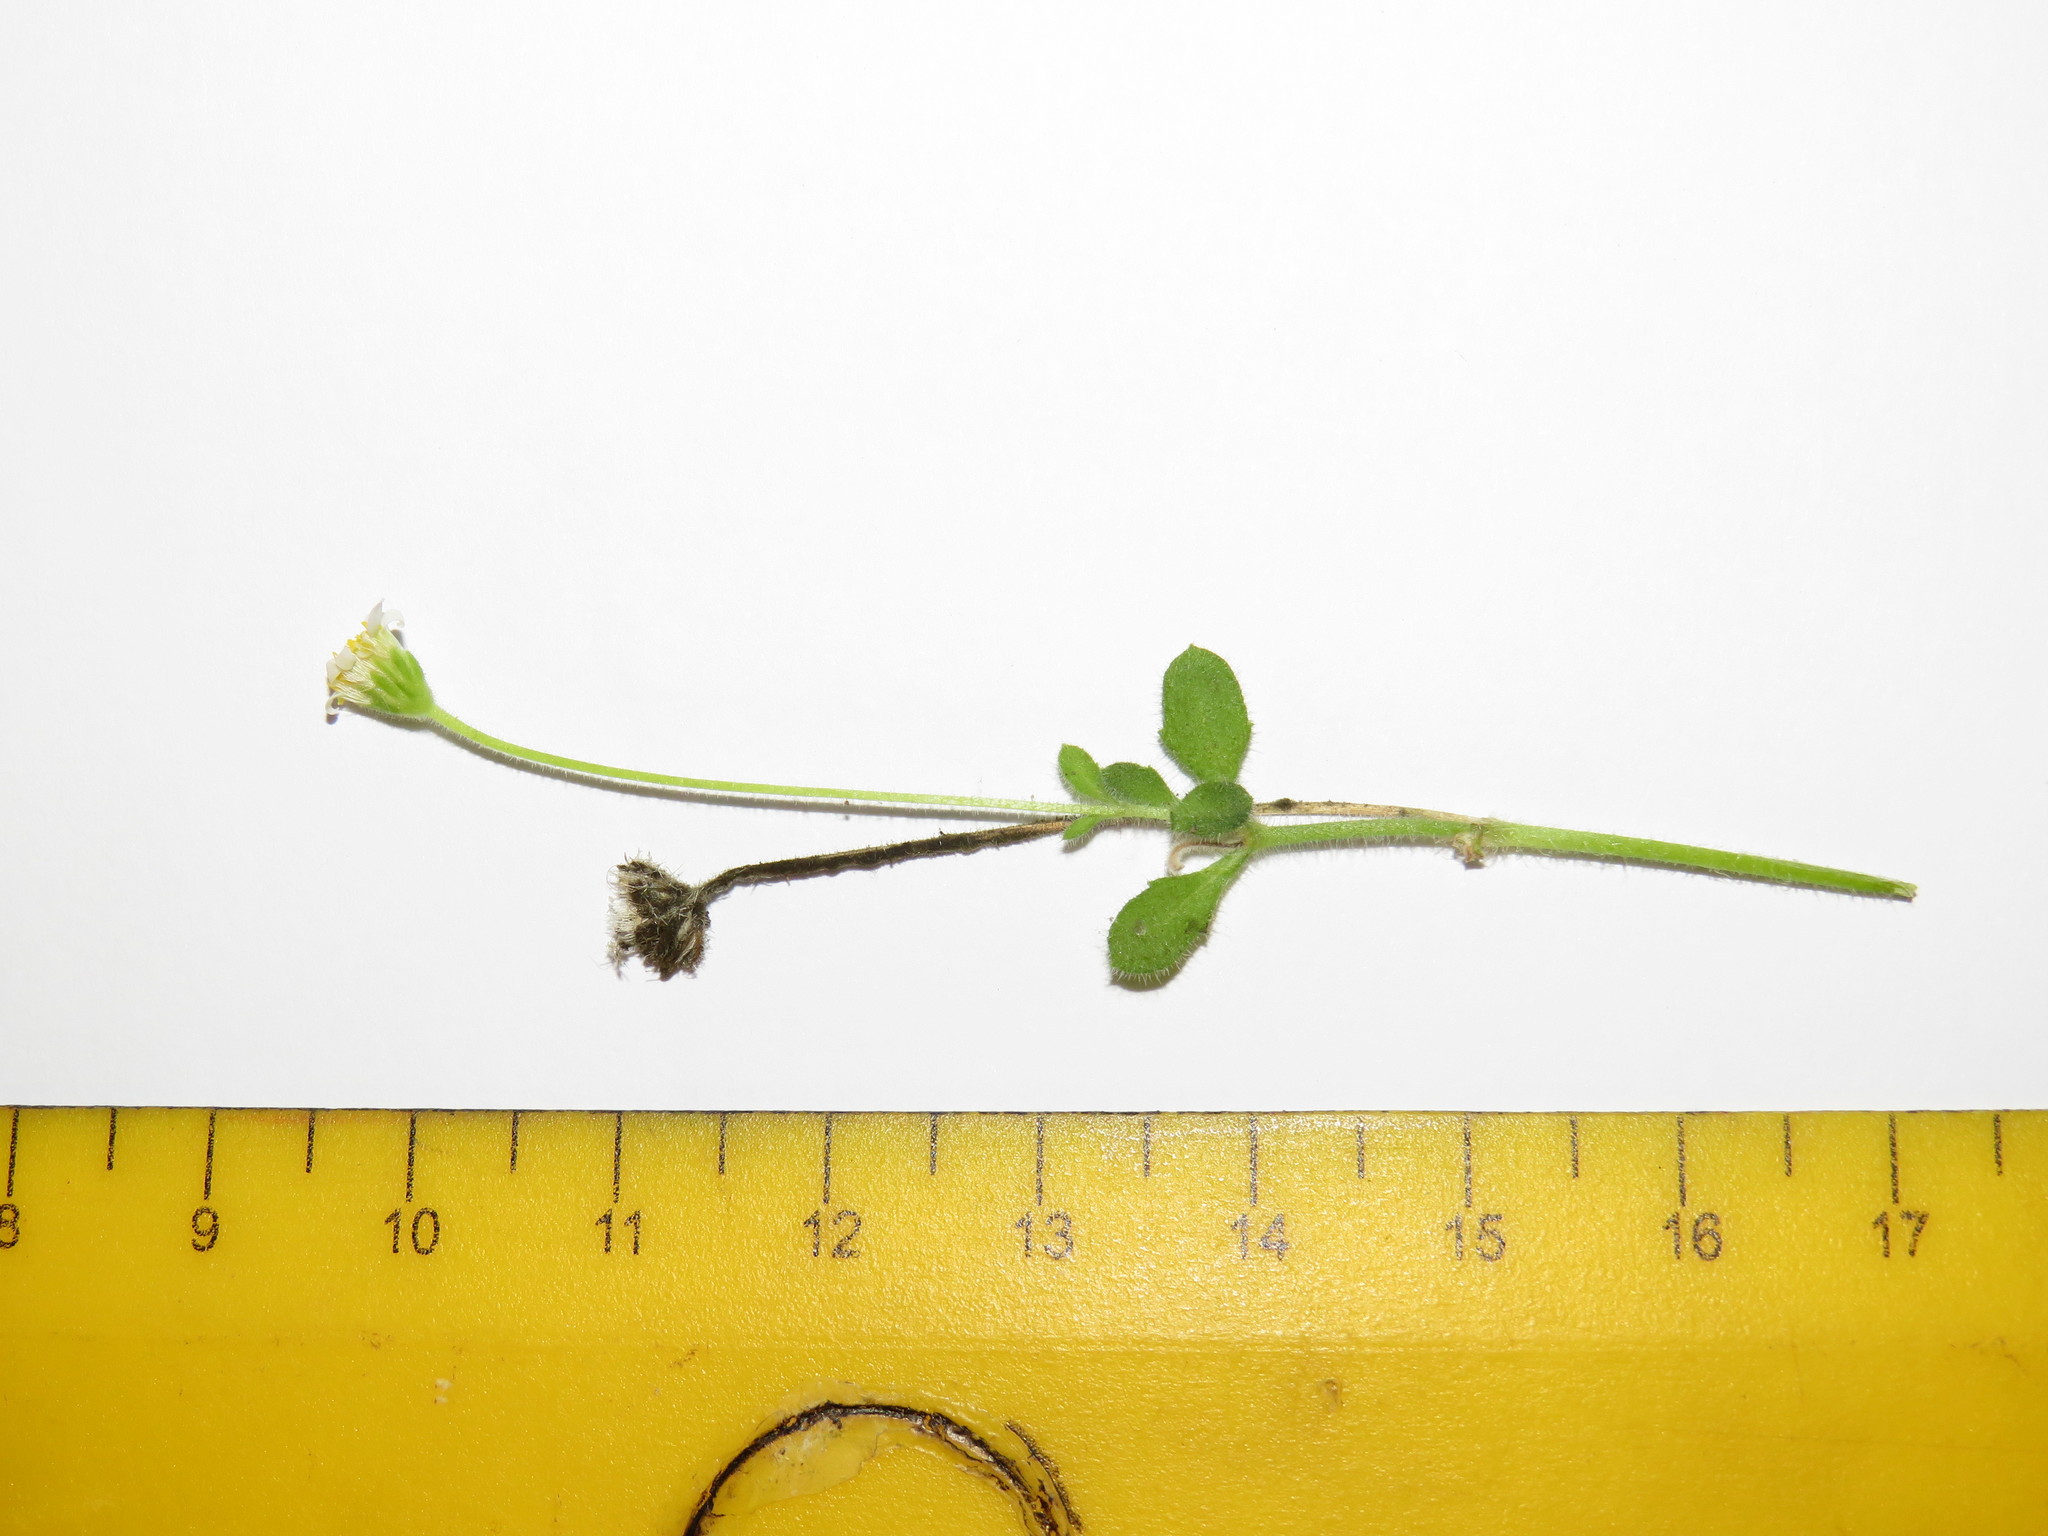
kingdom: Plantae
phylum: Tracheophyta
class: Magnoliopsida
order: Asterales
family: Asteraceae
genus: Felicia
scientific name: Felicia cymbalariae
